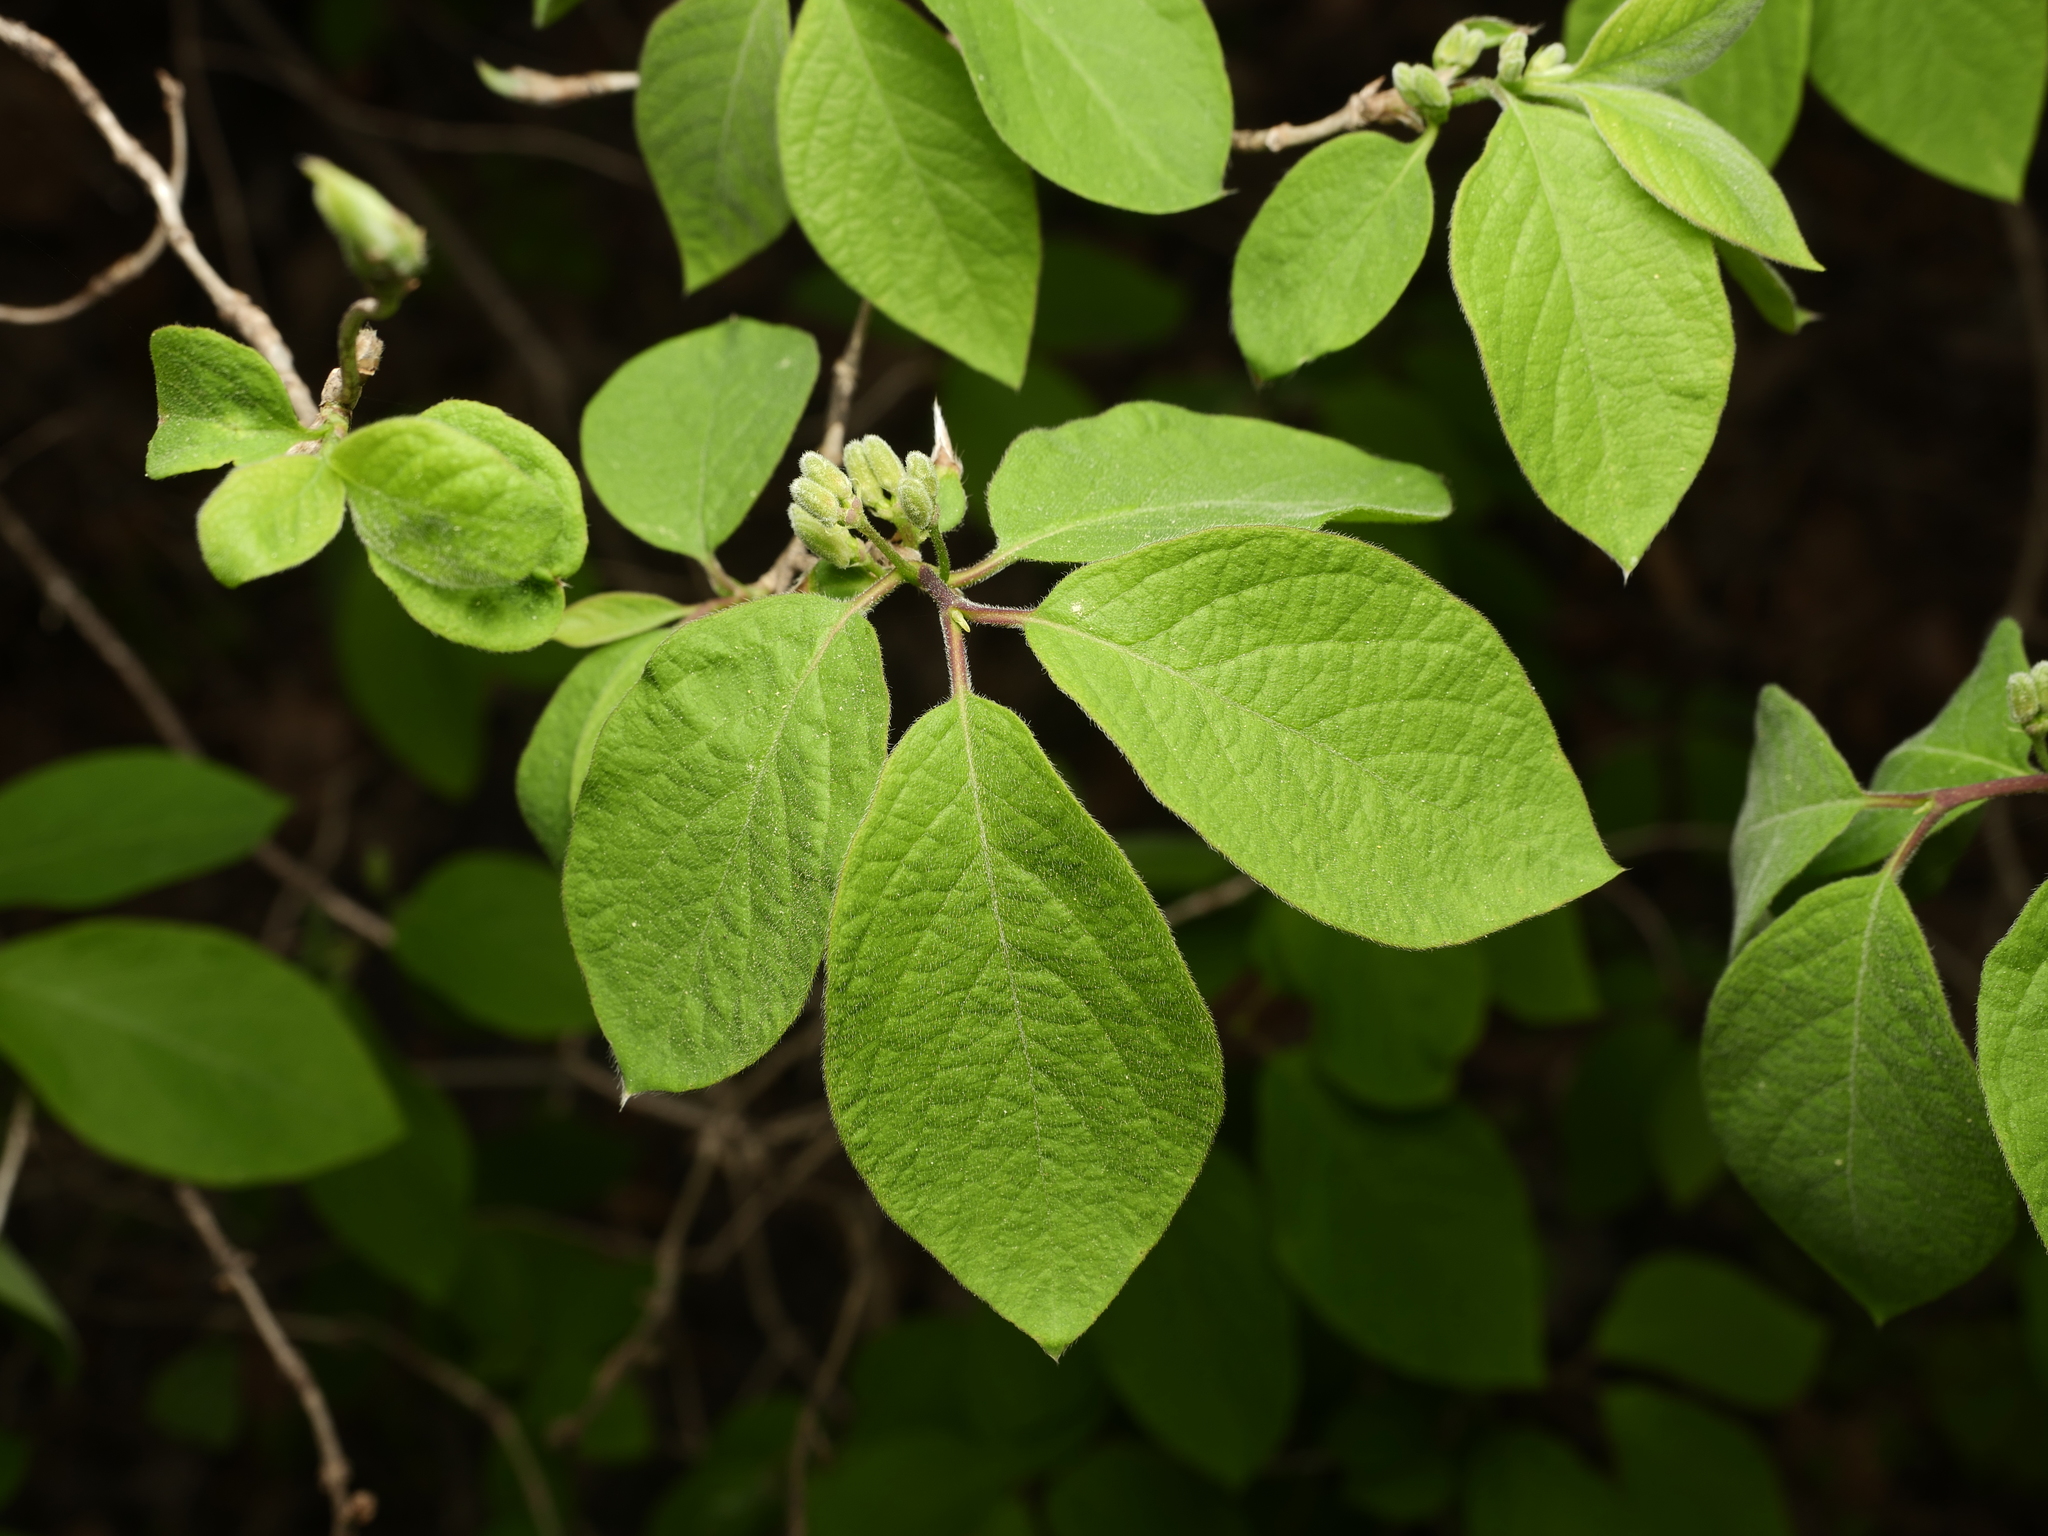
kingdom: Plantae
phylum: Tracheophyta
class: Magnoliopsida
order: Dipsacales
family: Caprifoliaceae
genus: Lonicera
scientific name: Lonicera xylosteum
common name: Fly honeysuckle
